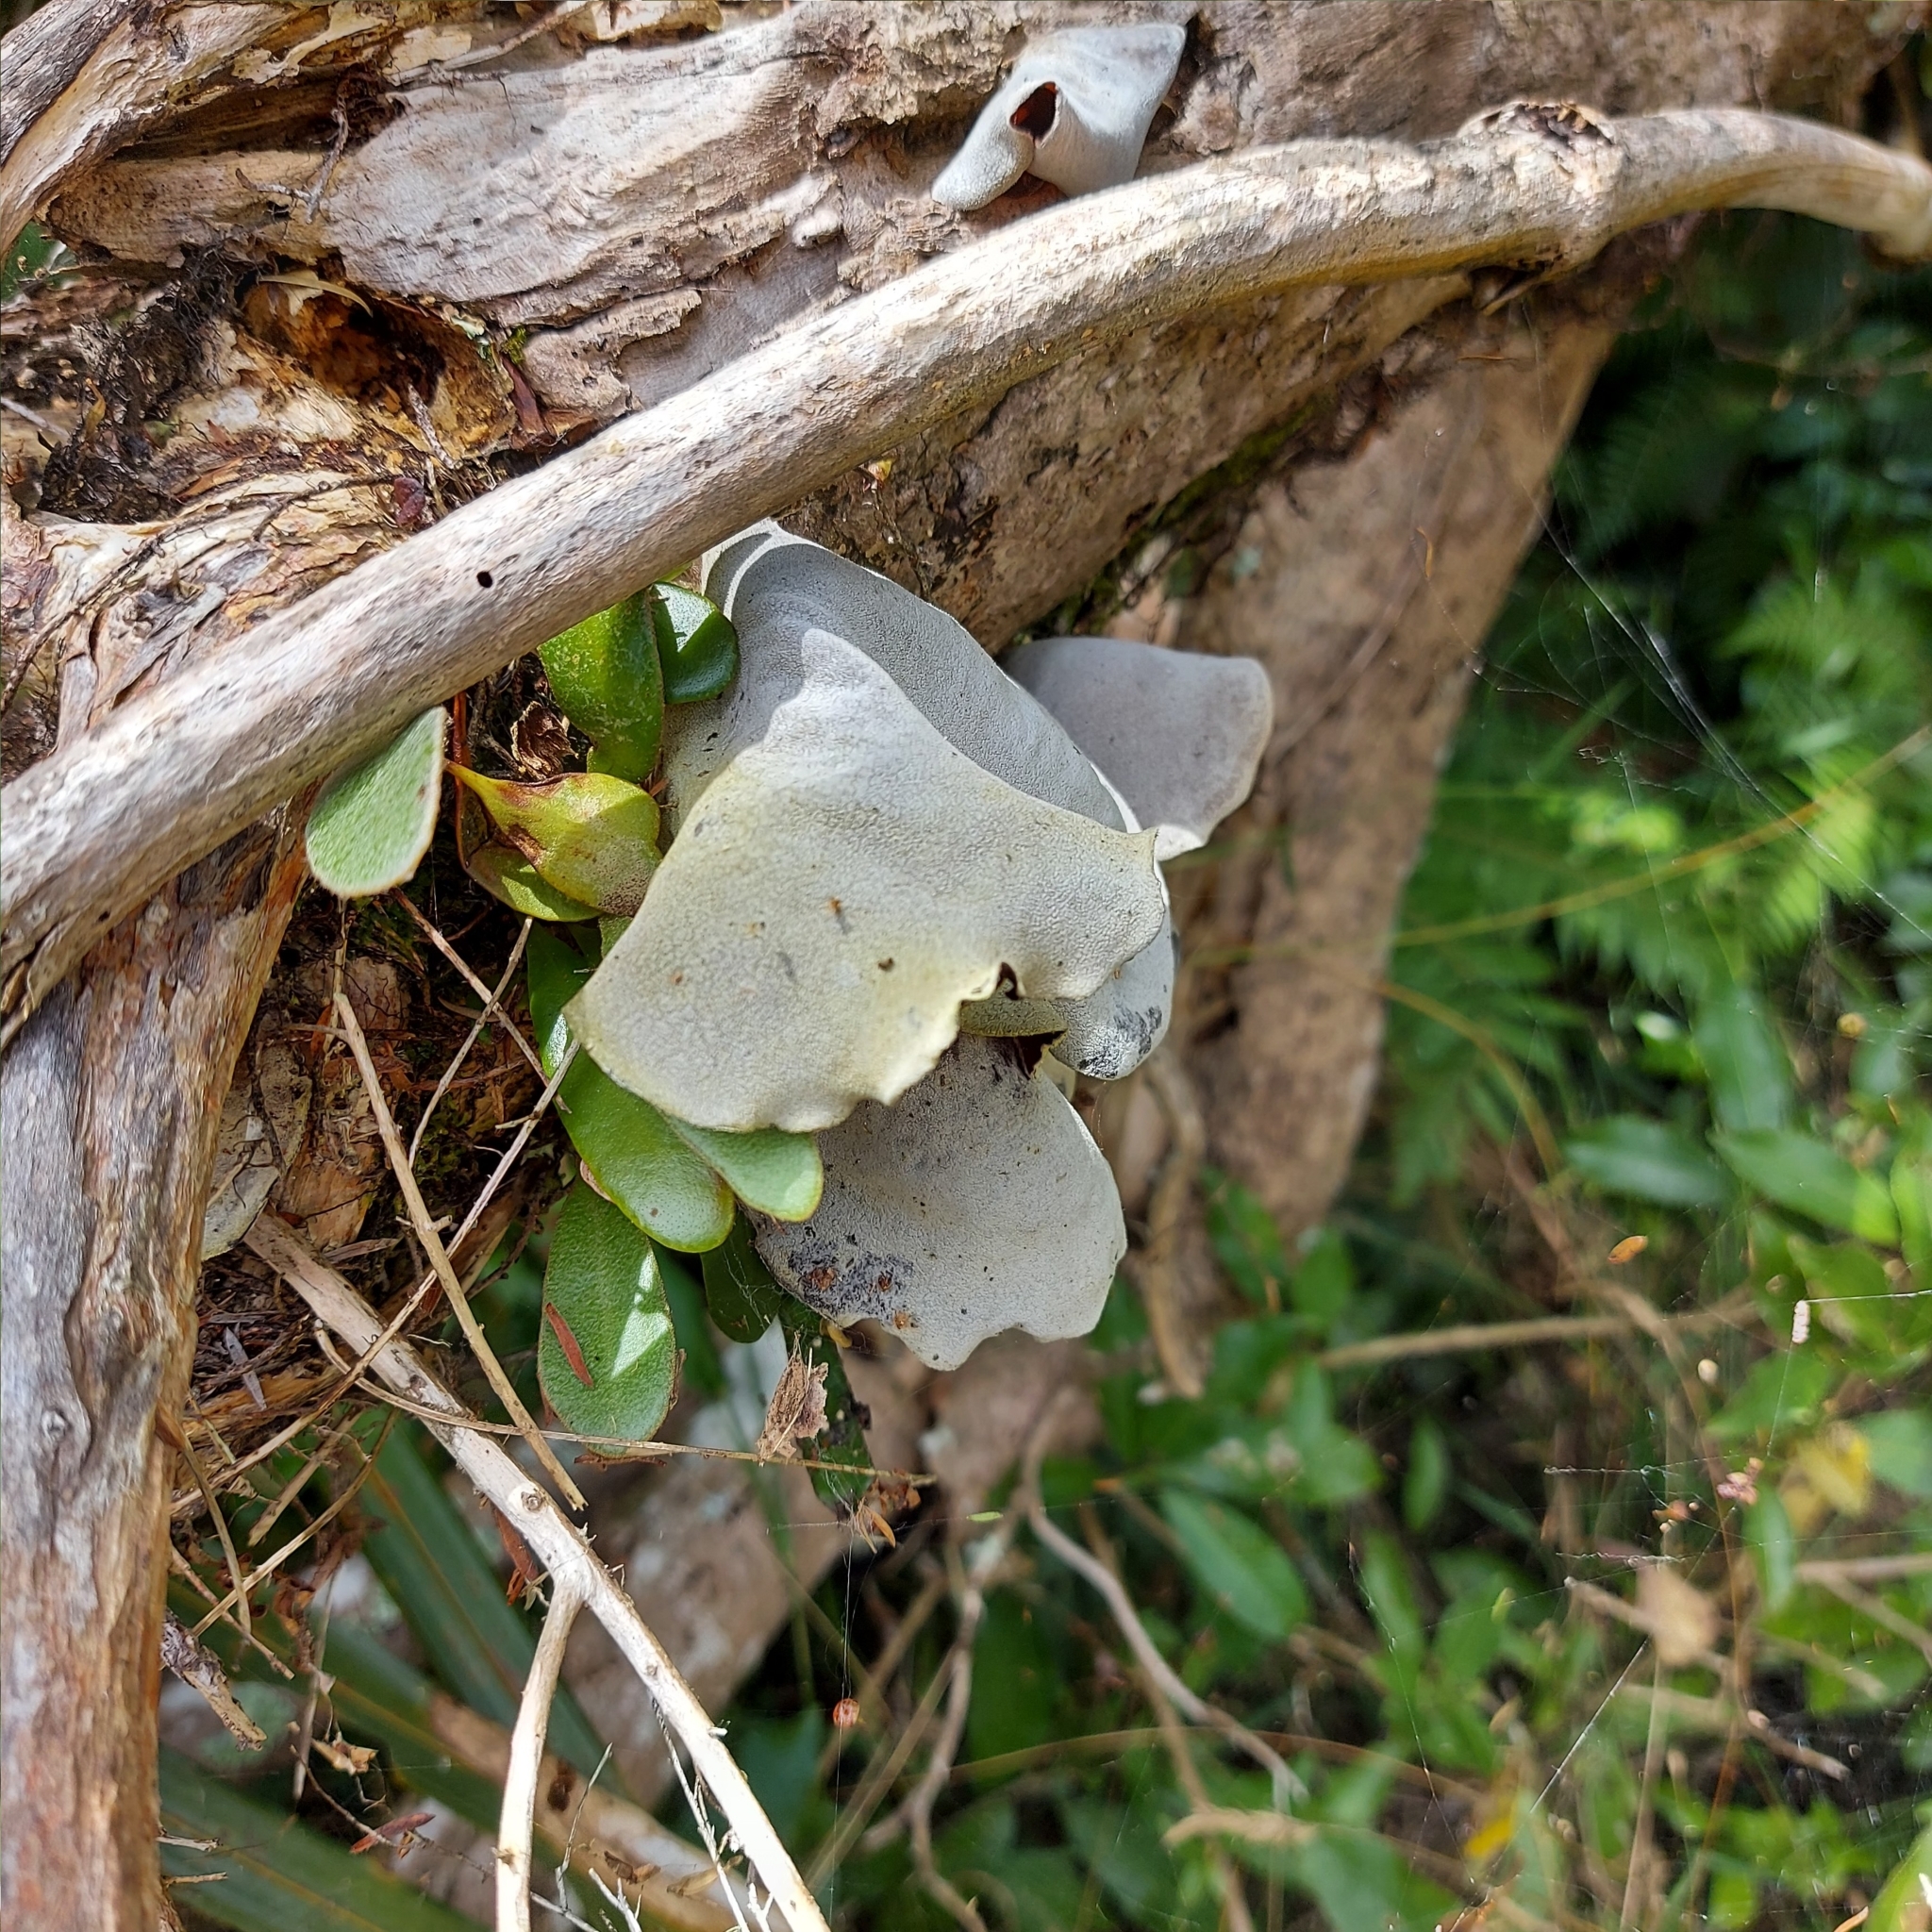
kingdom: Fungi
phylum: Basidiomycota
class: Agaricomycetes
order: Auriculariales
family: Auriculariaceae
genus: Auricularia
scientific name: Auricularia cornea
